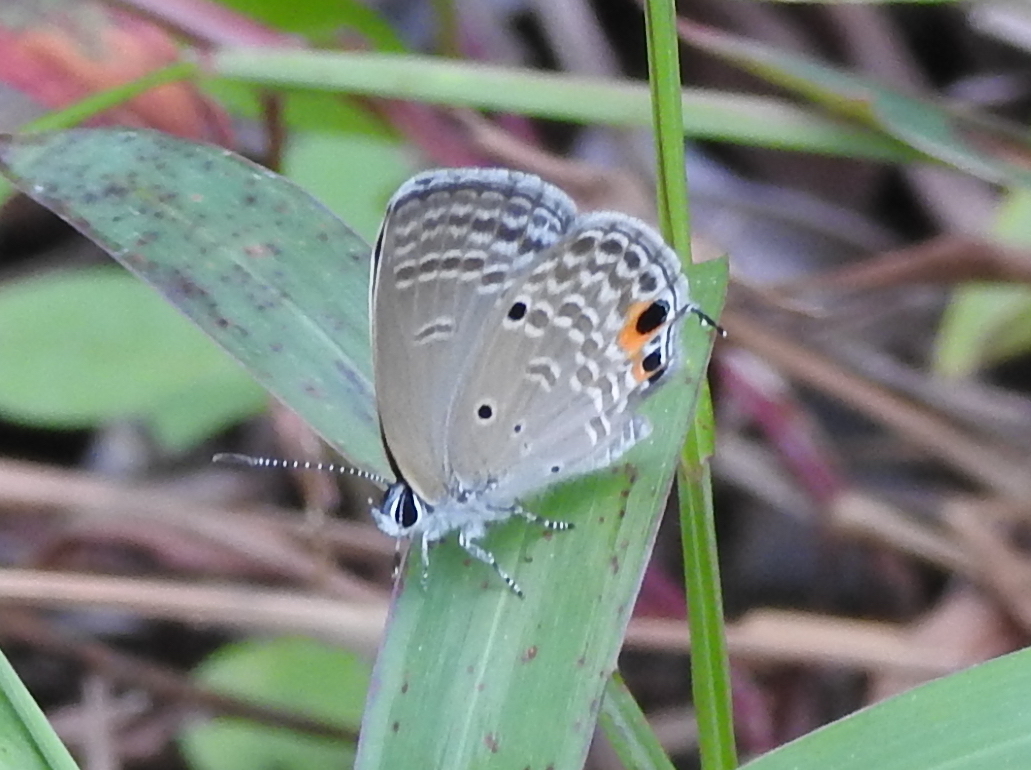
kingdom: Animalia
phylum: Arthropoda
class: Insecta
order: Lepidoptera
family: Lycaenidae
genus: Luthrodes
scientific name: Luthrodes pandava
